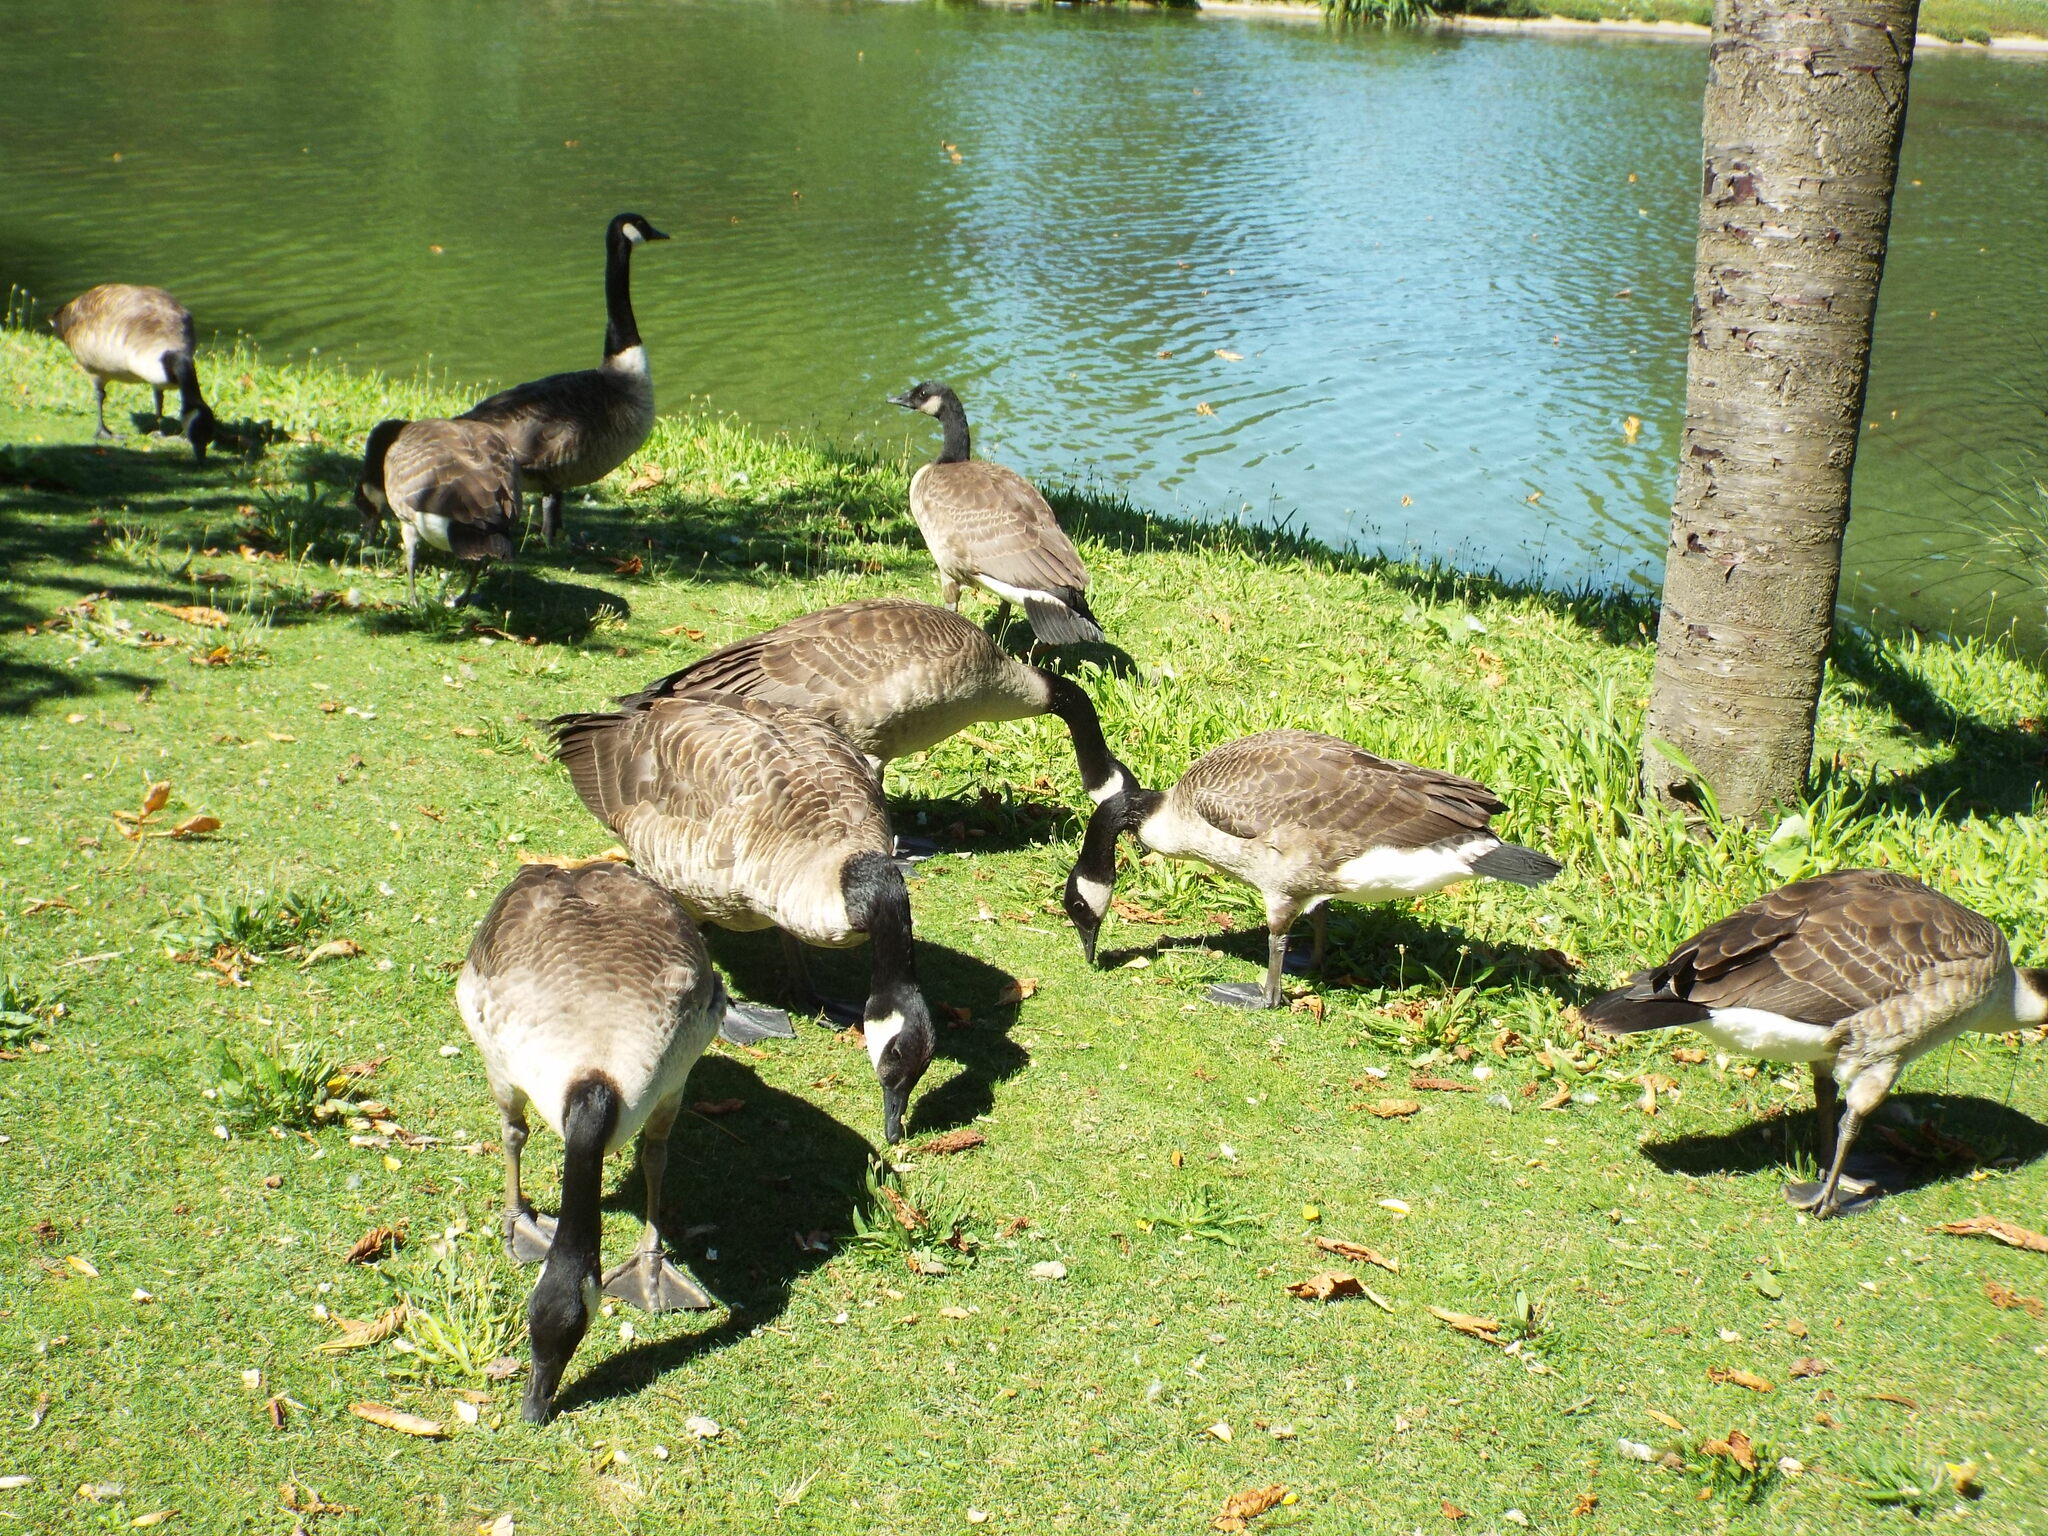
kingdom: Animalia
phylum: Chordata
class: Aves
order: Anseriformes
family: Anatidae
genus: Branta
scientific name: Branta canadensis
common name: Canada goose
